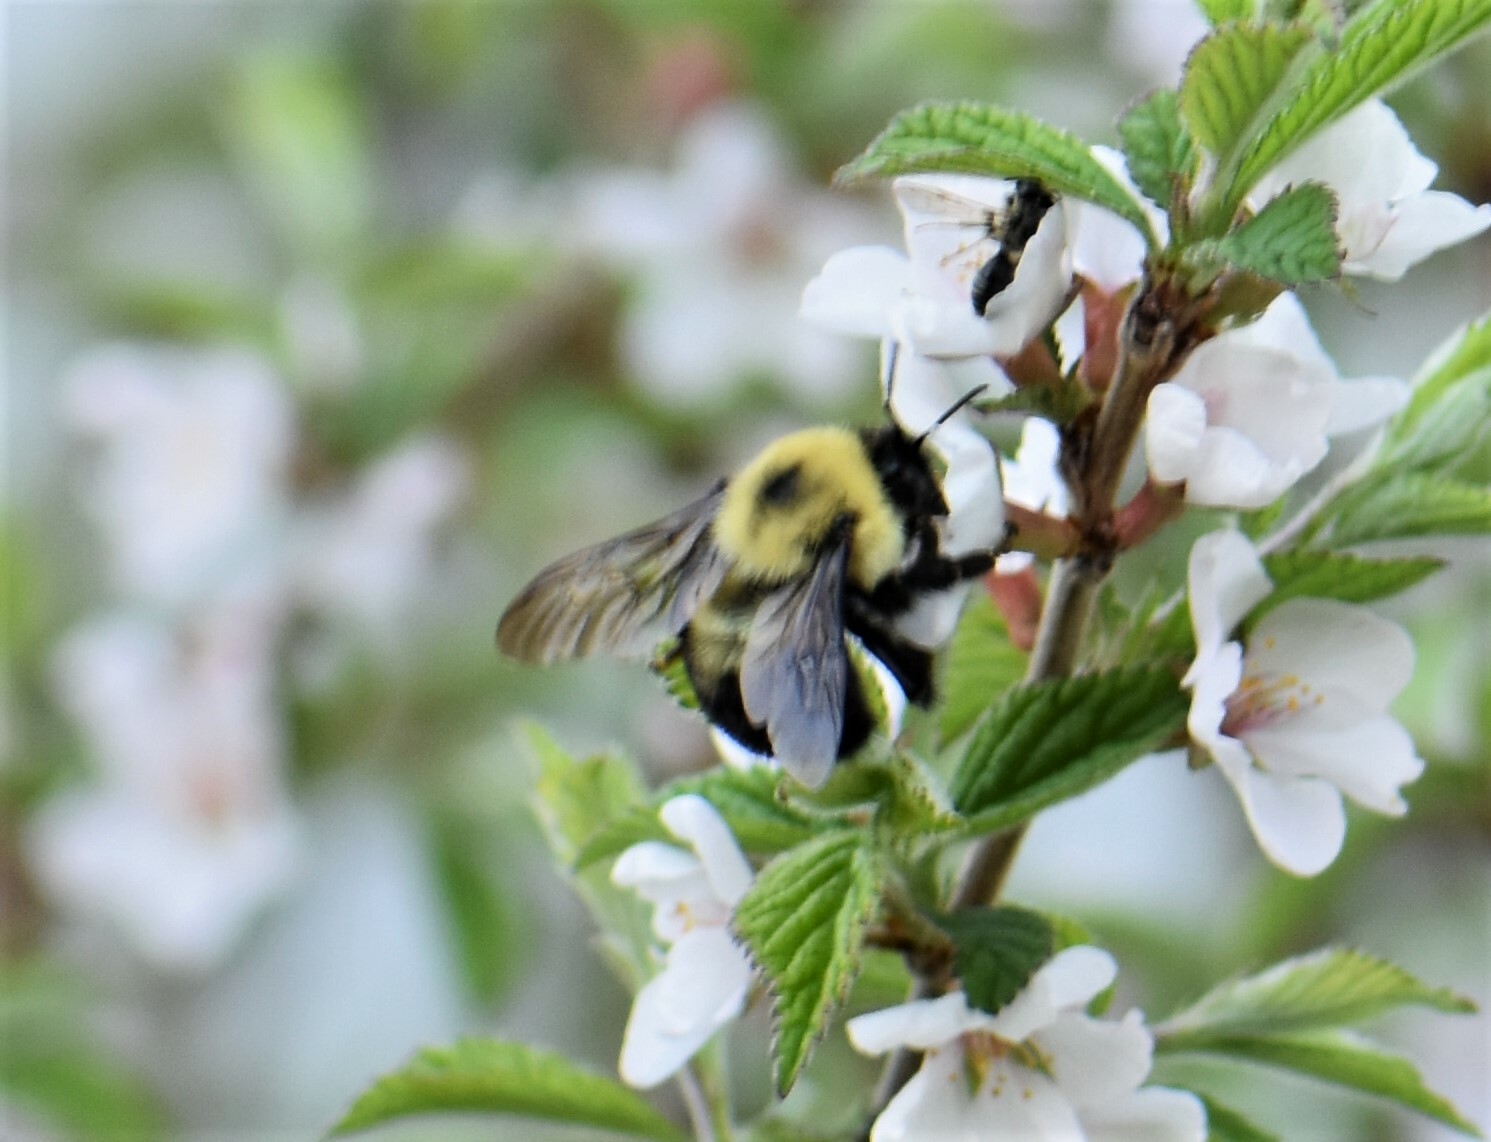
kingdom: Animalia
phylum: Arthropoda
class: Insecta
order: Hymenoptera
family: Apidae
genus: Bombus
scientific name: Bombus bimaculatus
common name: Two-spotted bumble bee
